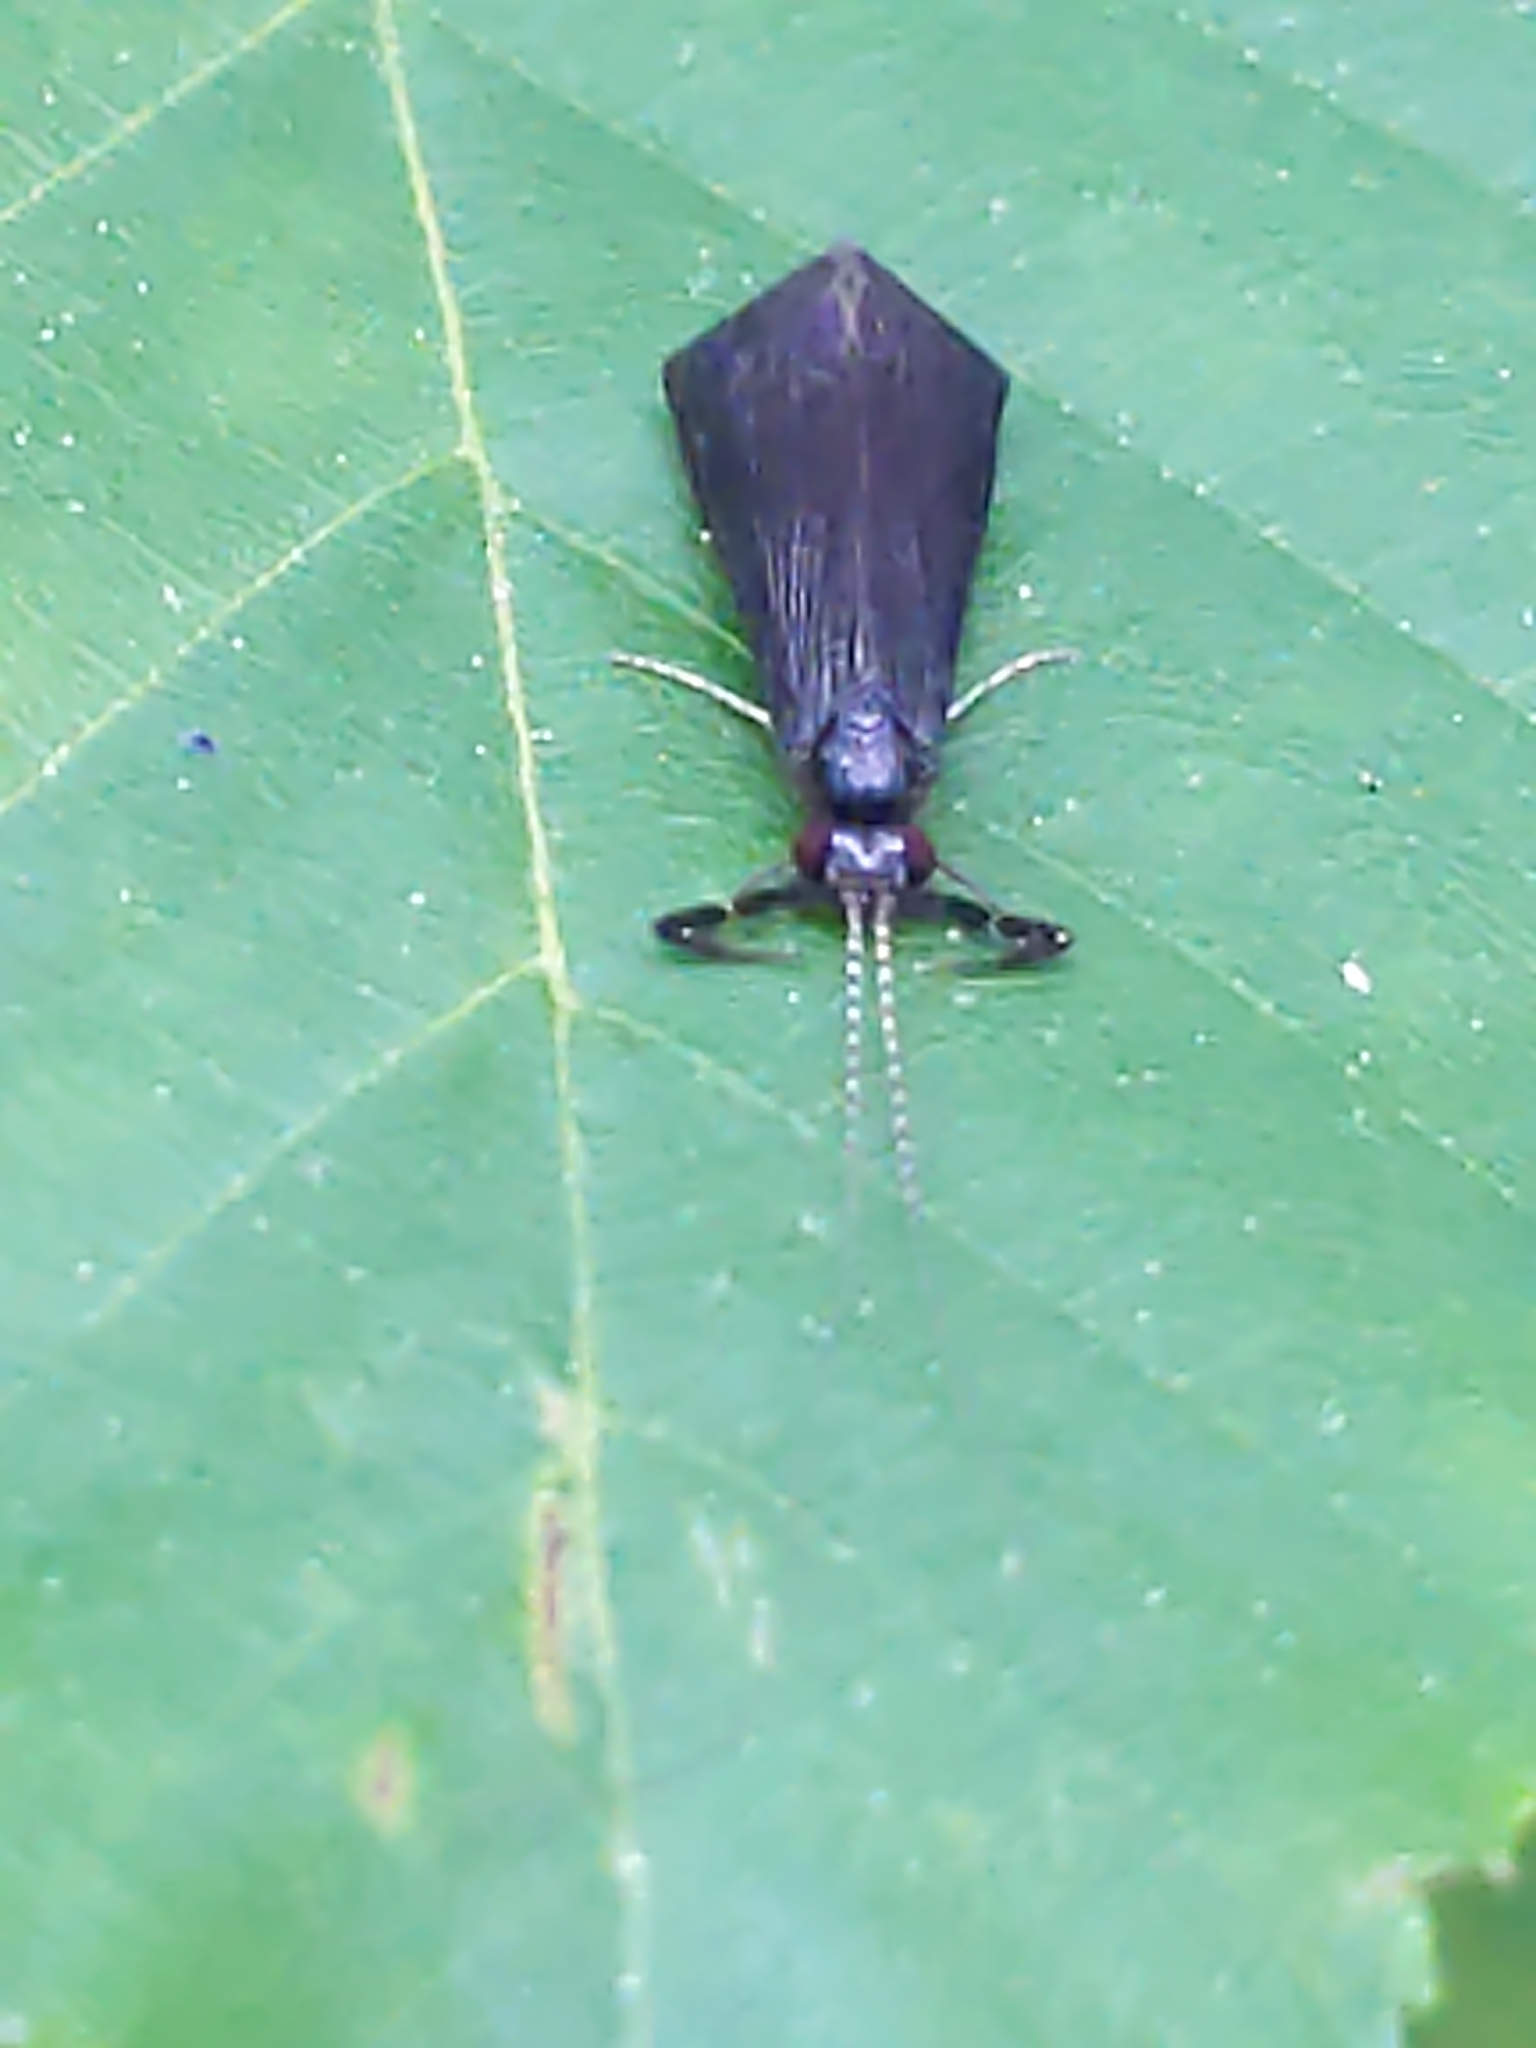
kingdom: Animalia
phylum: Arthropoda
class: Insecta
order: Trichoptera
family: Leptoceridae
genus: Mystacides
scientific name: Mystacides sepulchralis
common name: Black dancer caddisfly
